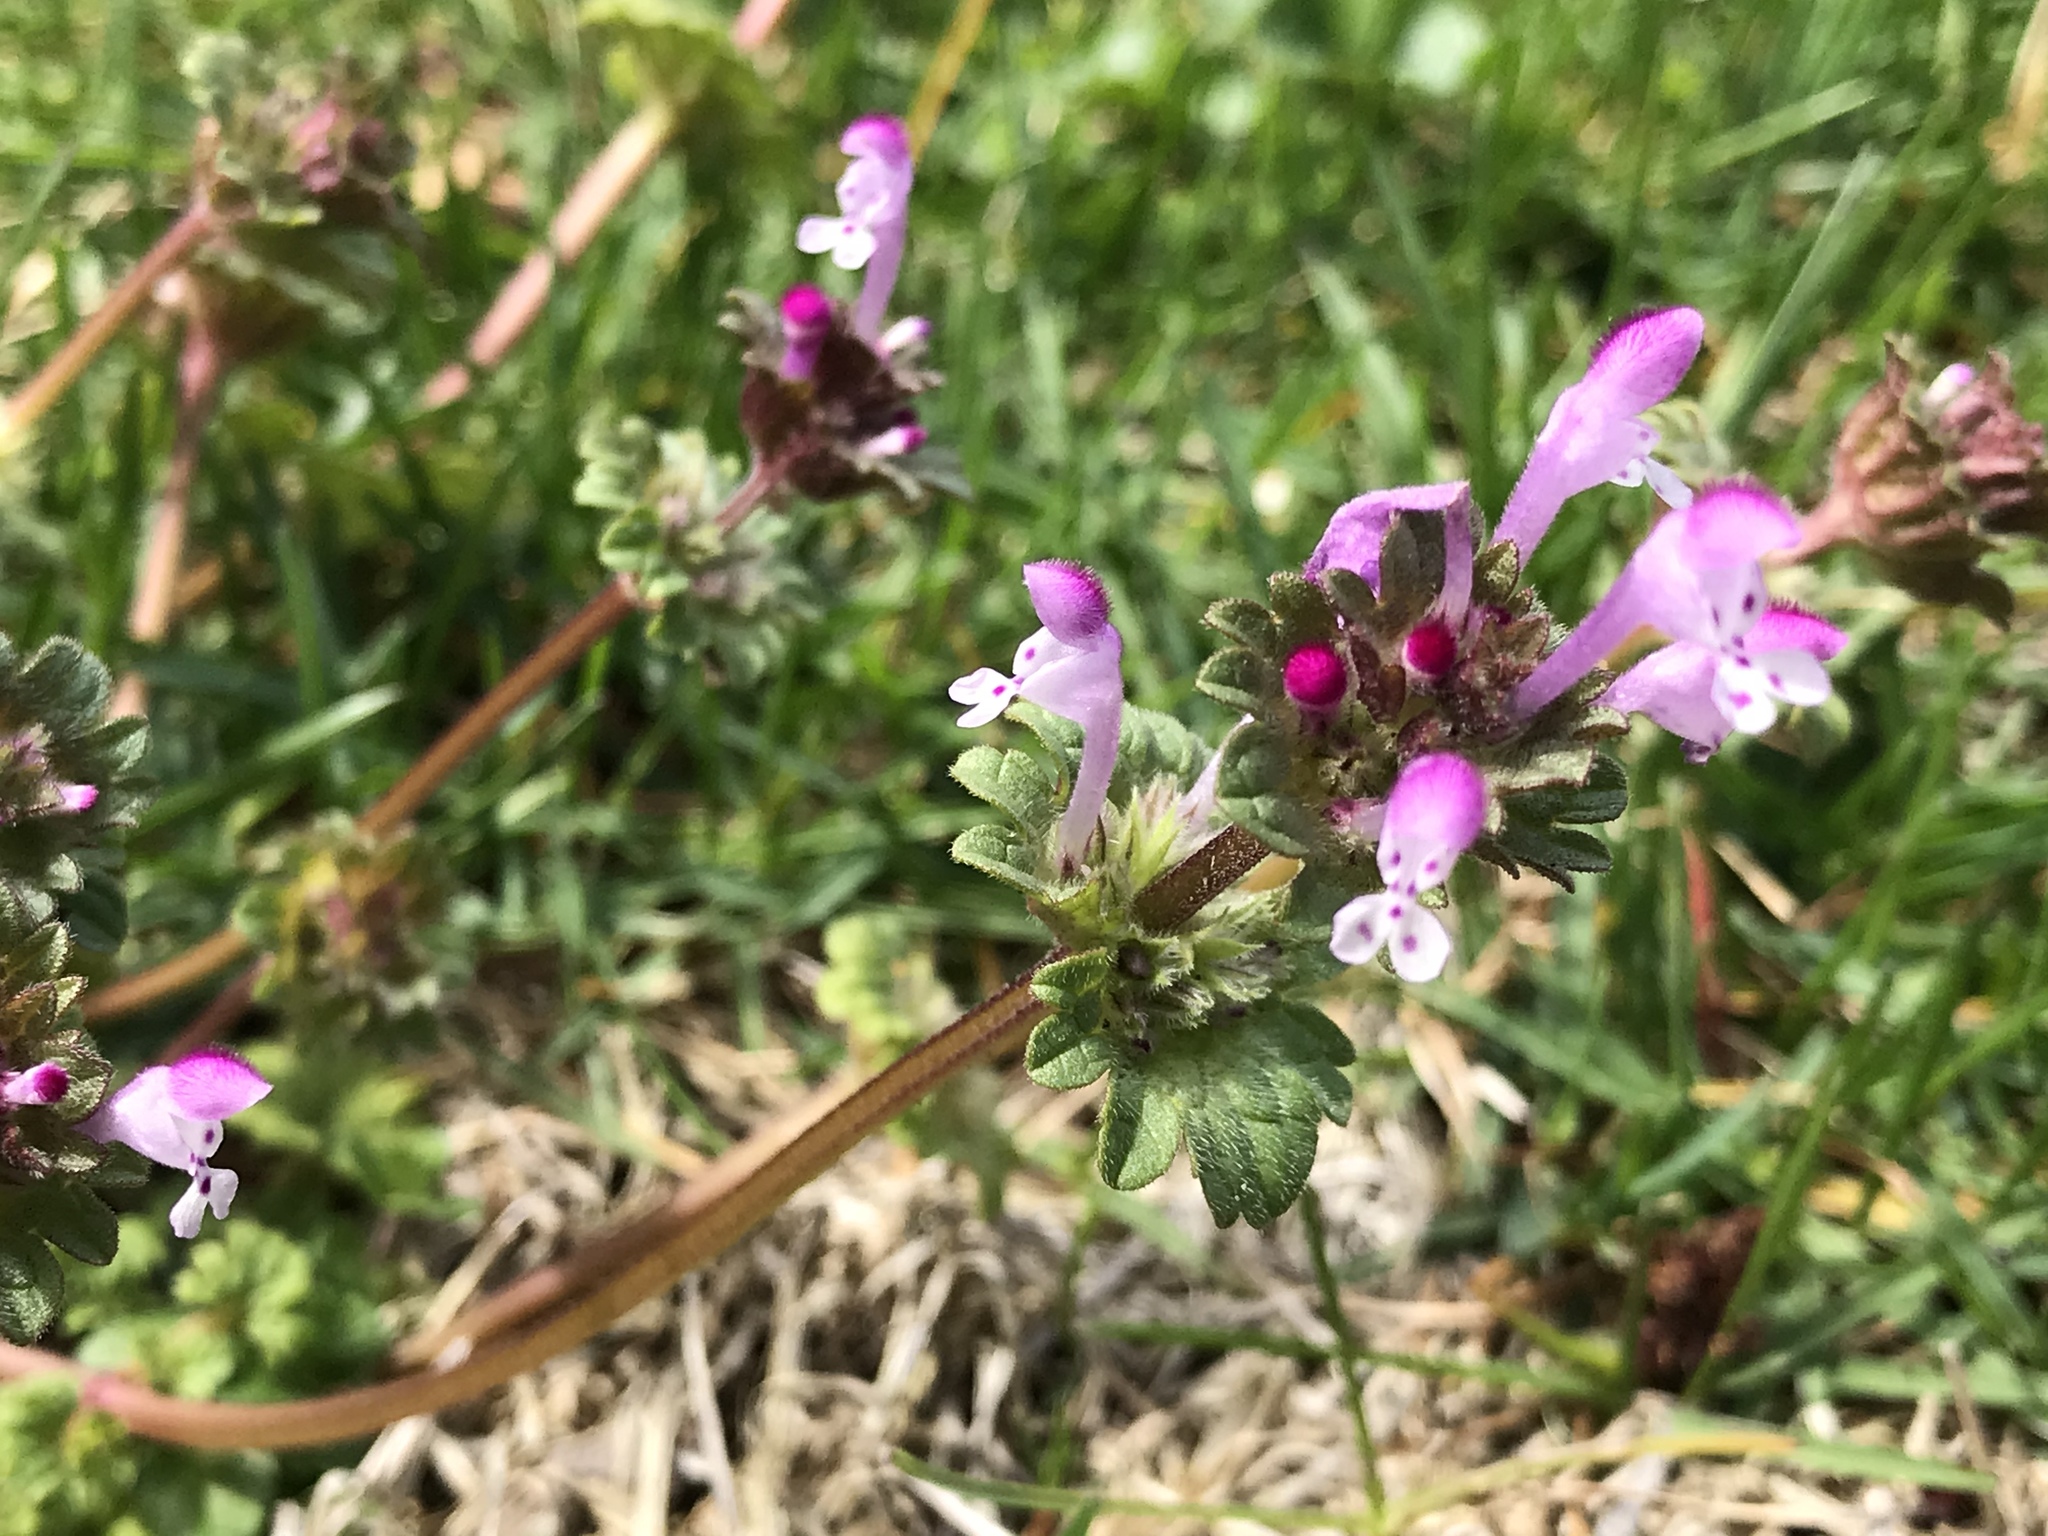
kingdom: Plantae
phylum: Tracheophyta
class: Magnoliopsida
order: Lamiales
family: Lamiaceae
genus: Lamium
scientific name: Lamium amplexicaule
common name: Henbit dead-nettle
